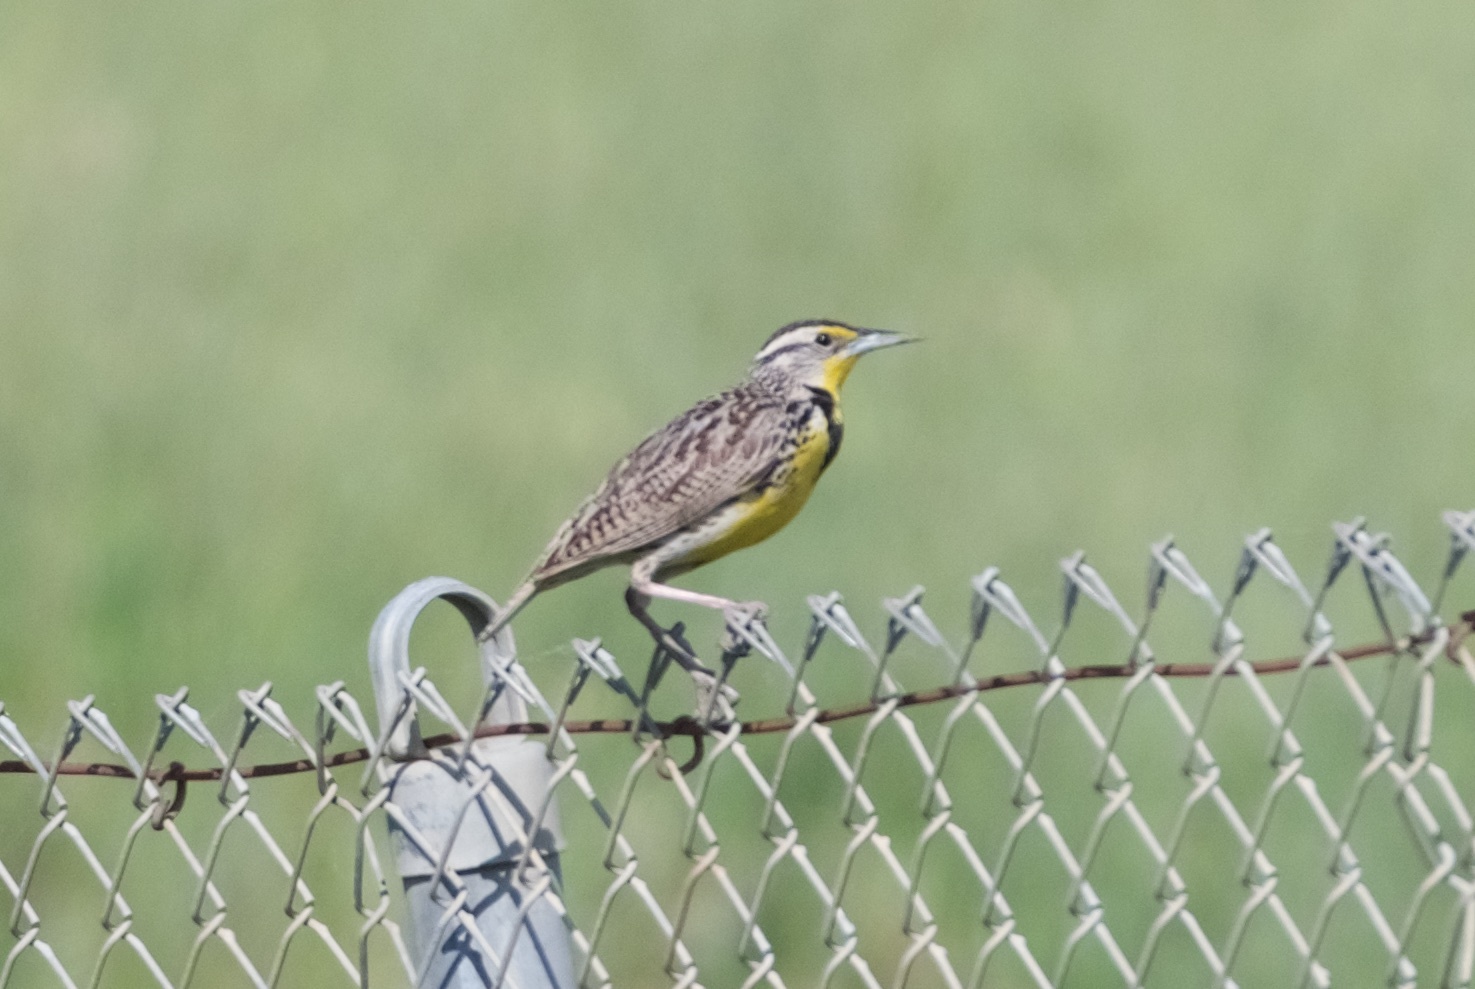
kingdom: Animalia
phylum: Chordata
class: Aves
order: Passeriformes
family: Icteridae
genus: Sturnella
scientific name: Sturnella neglecta
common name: Western meadowlark
